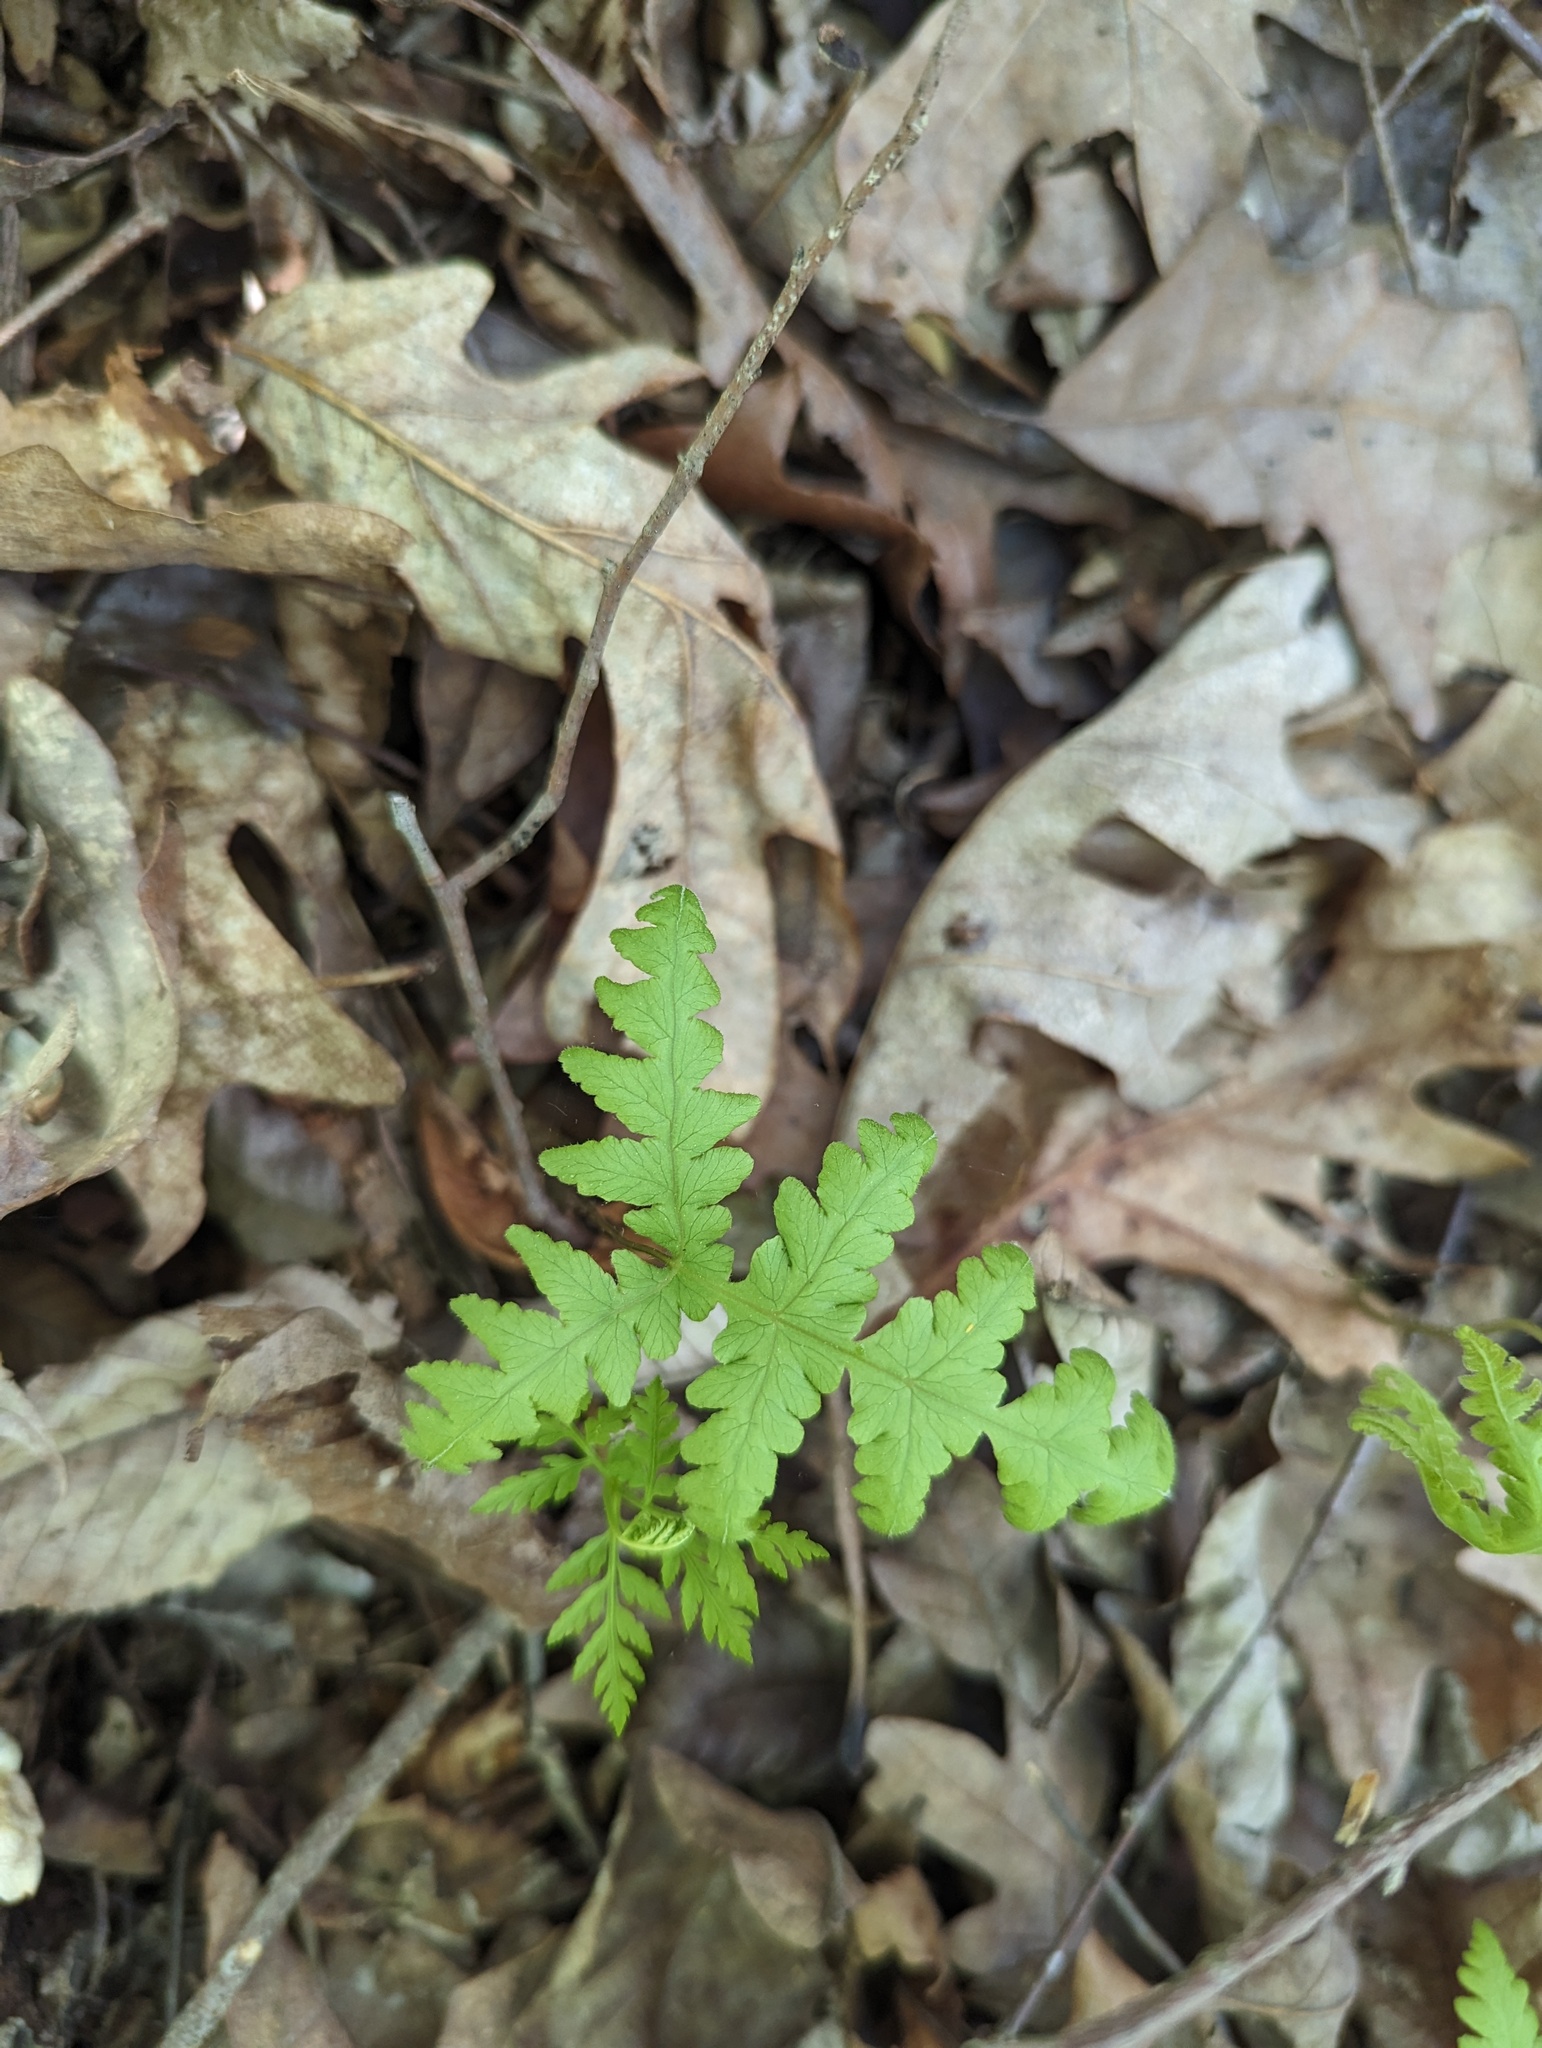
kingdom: Plantae
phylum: Tracheophyta
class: Polypodiopsida
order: Polypodiales
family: Thelypteridaceae
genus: Phegopteris
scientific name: Phegopteris hexagonoptera
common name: Broad beech fern
